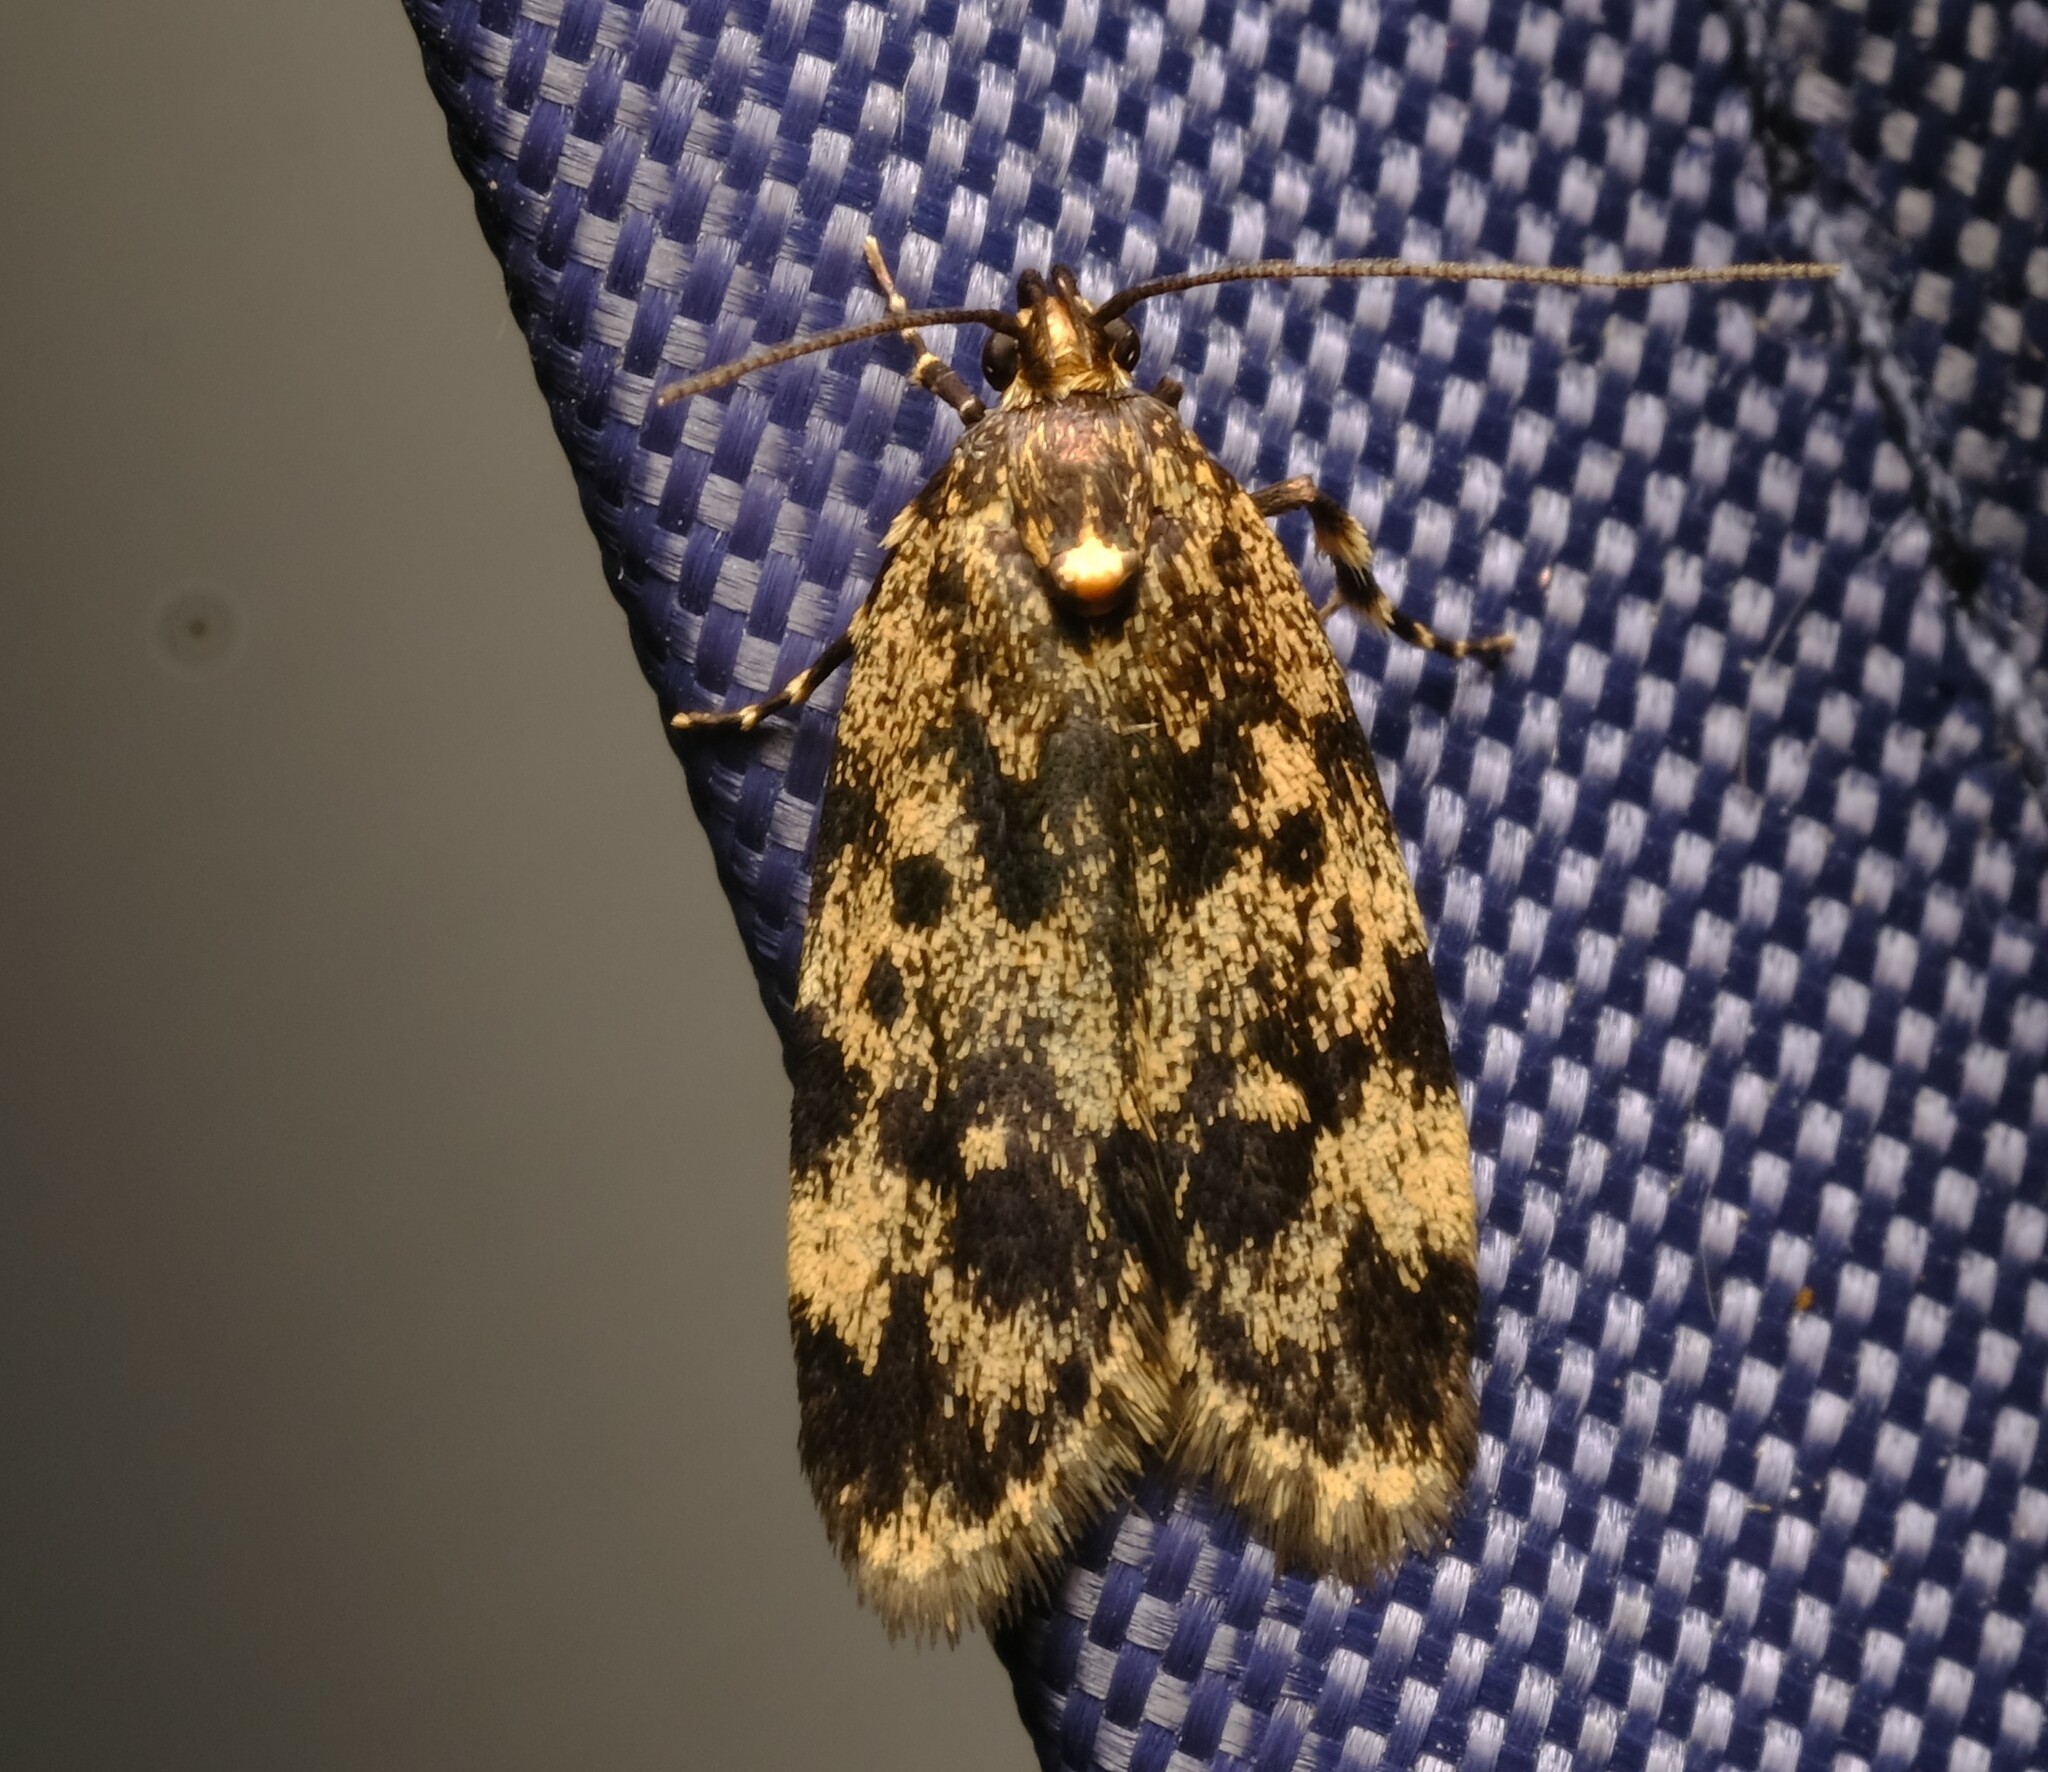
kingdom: Animalia
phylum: Arthropoda
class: Insecta
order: Lepidoptera
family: Oecophoridae
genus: Barea
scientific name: Barea codrella
